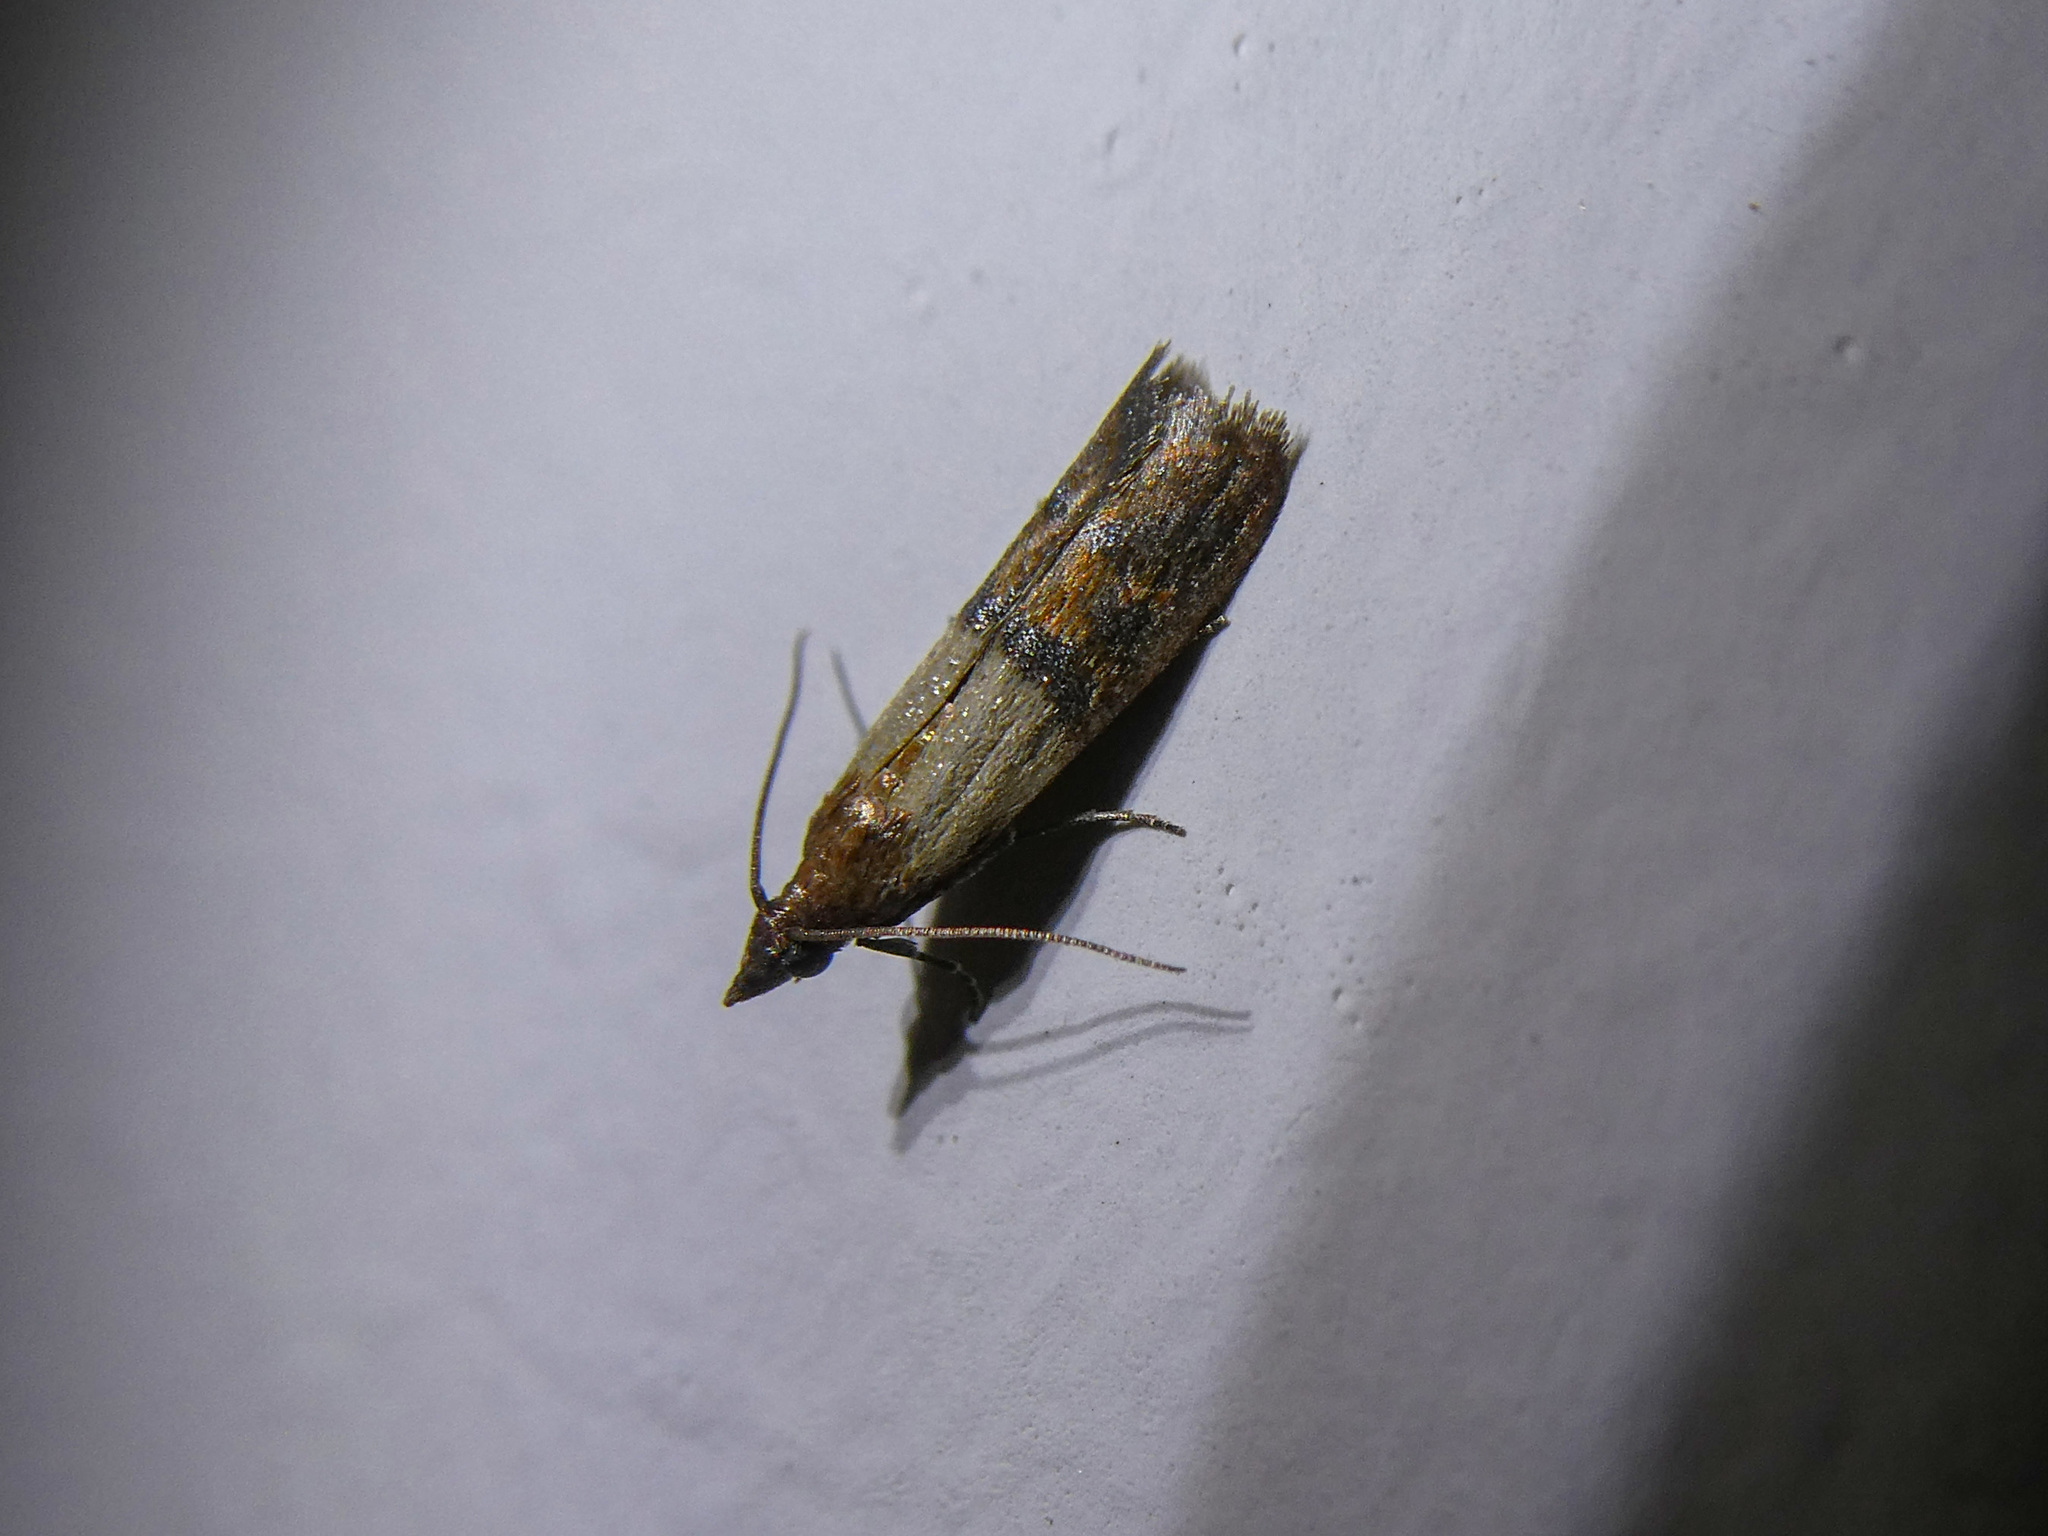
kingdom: Animalia
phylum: Arthropoda
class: Insecta
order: Lepidoptera
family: Pyralidae
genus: Plodia
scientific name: Plodia interpunctella
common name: Indian meal moth
